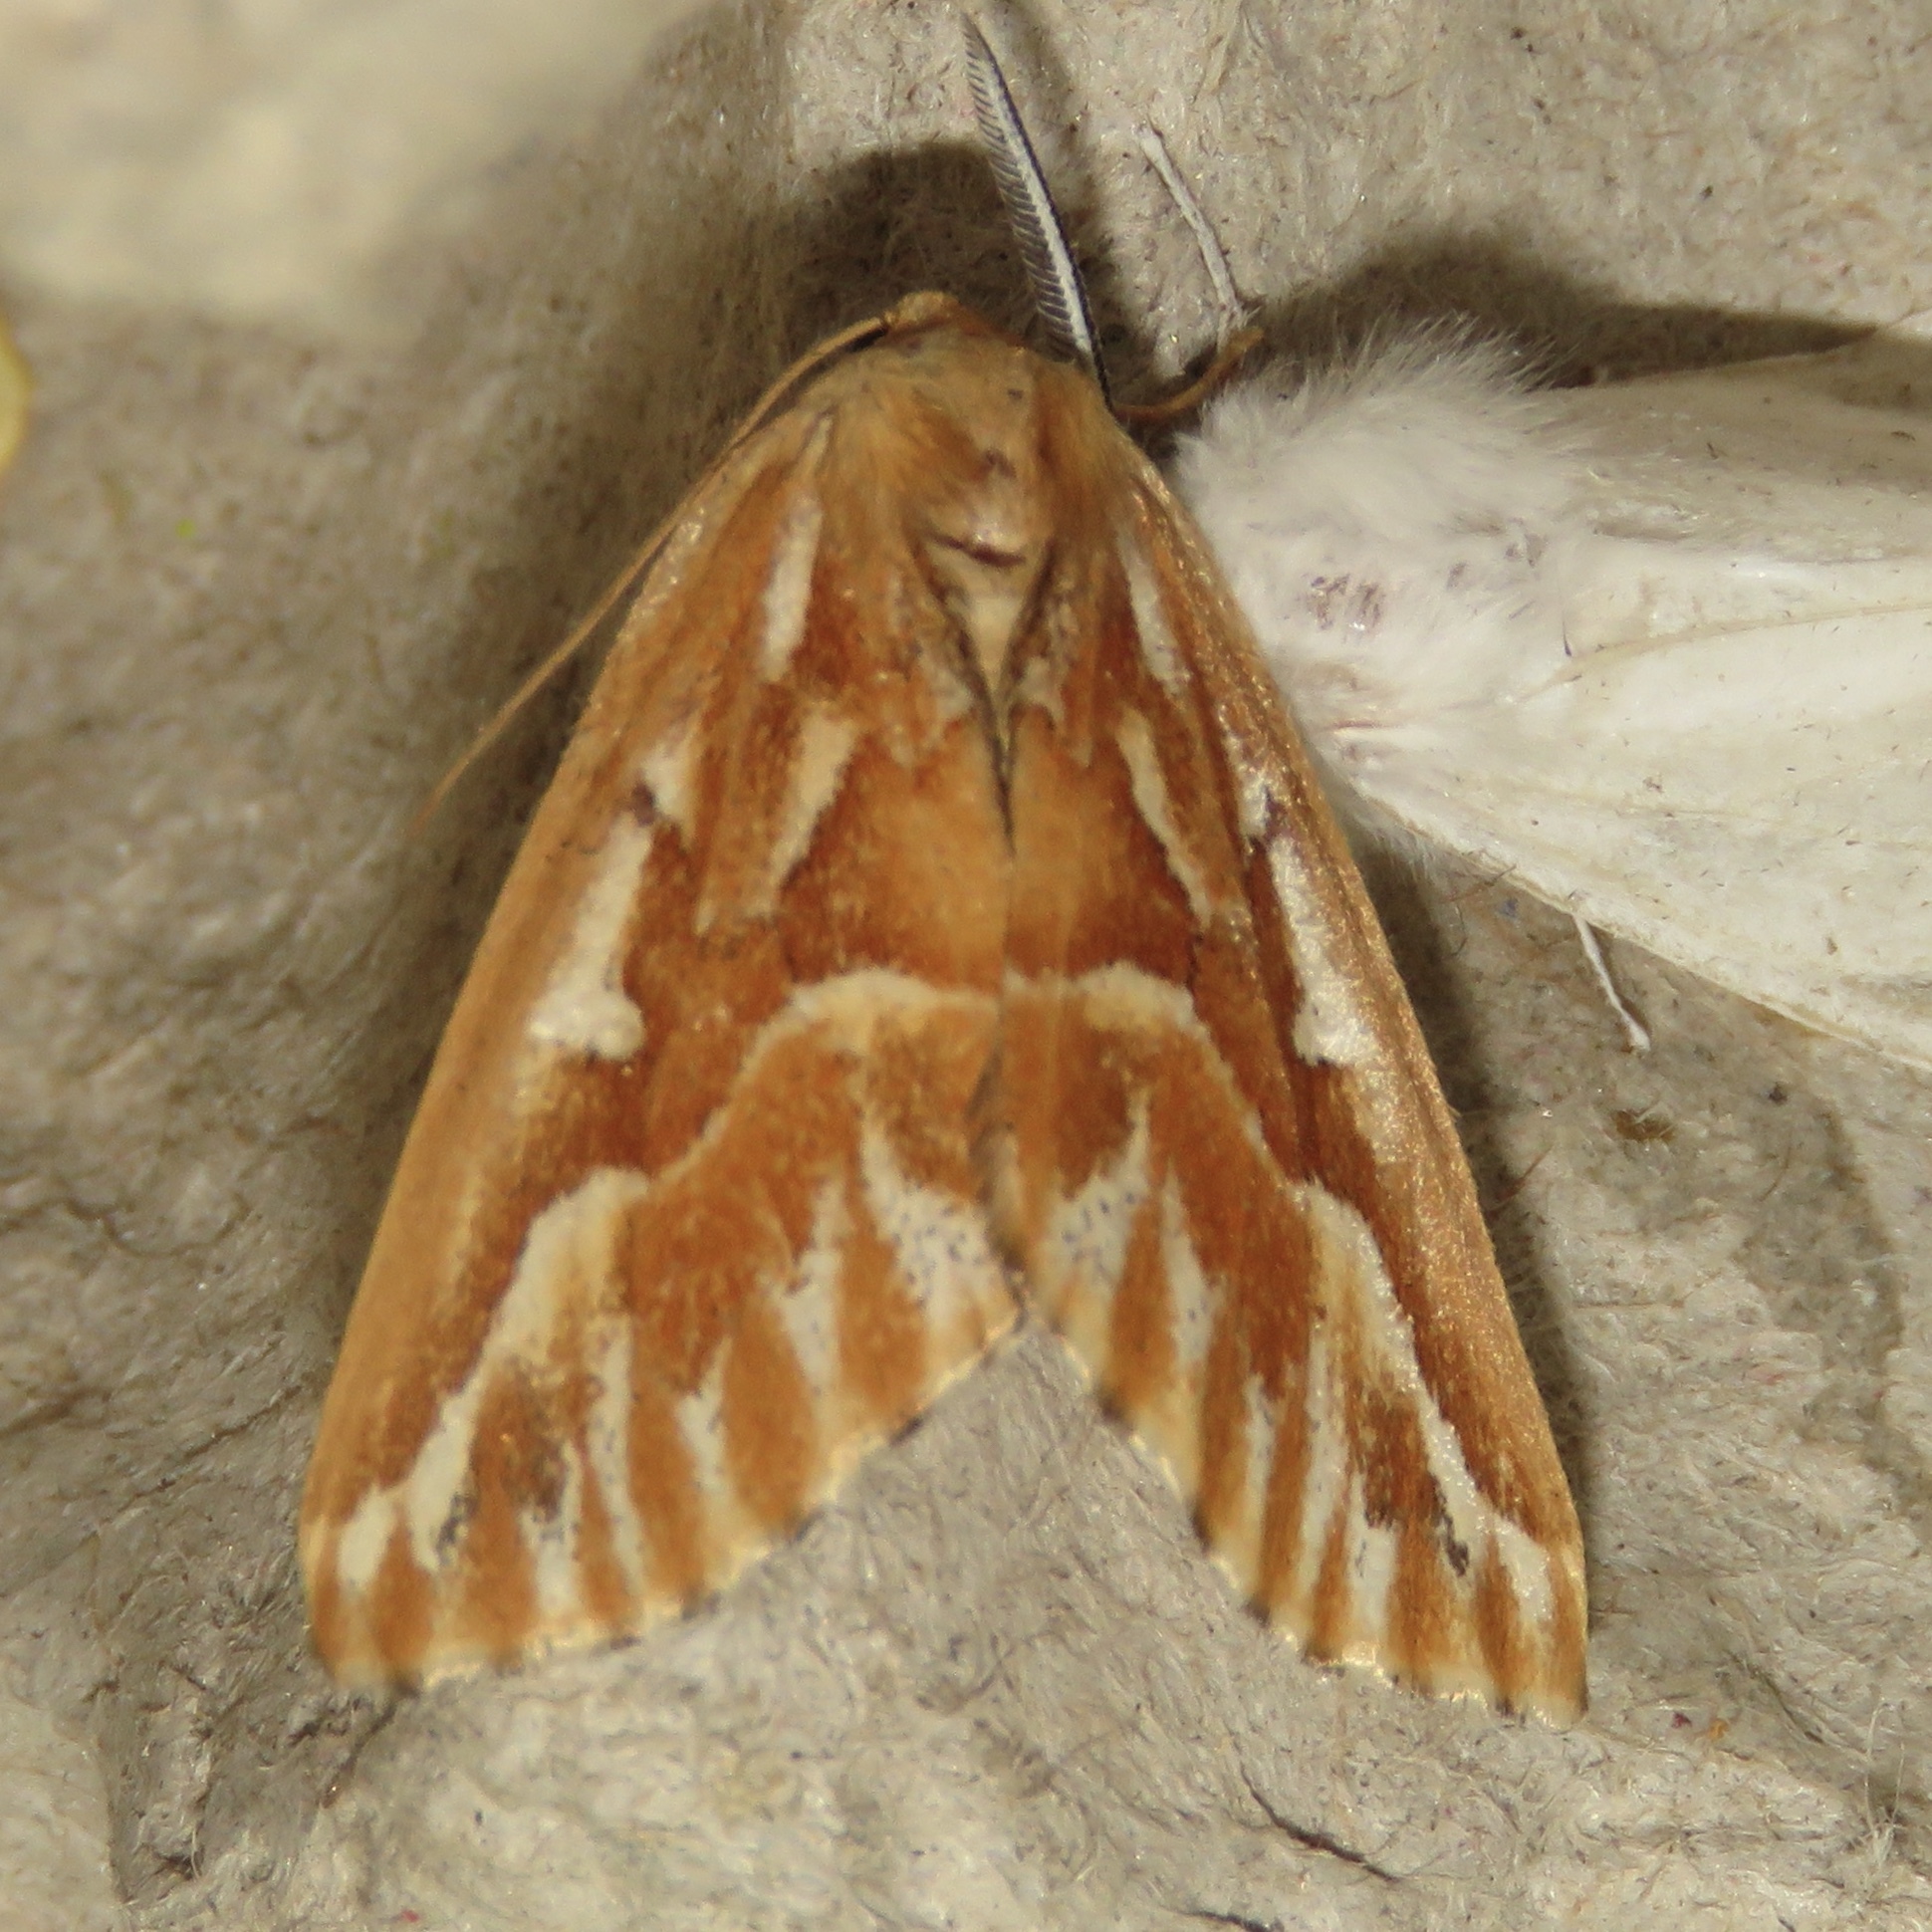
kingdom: Animalia
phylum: Arthropoda
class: Insecta
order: Lepidoptera
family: Geometridae
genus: Caripeta
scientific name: Caripeta piniata
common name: Northern pine looper moth
